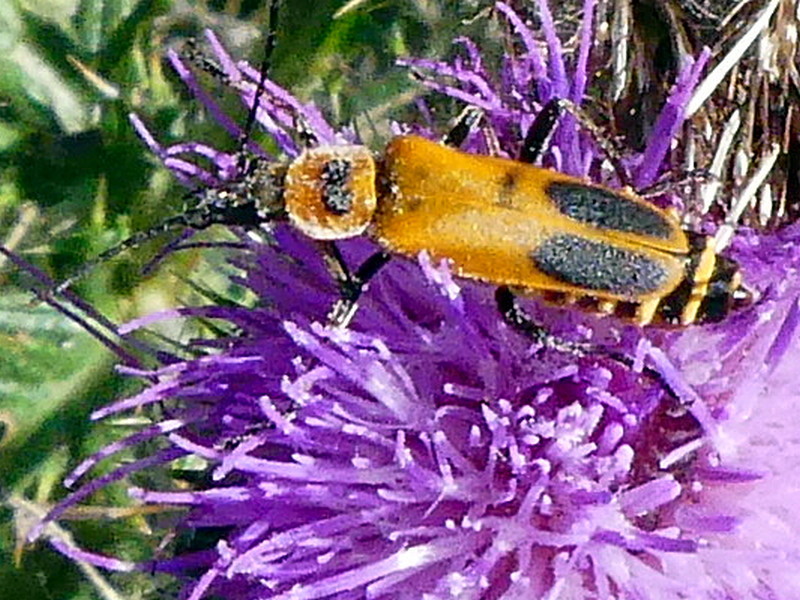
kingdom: Animalia
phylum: Arthropoda
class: Insecta
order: Coleoptera
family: Cantharidae
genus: Chauliognathus
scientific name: Chauliognathus pensylvanicus
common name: Goldenrod soldier beetle
